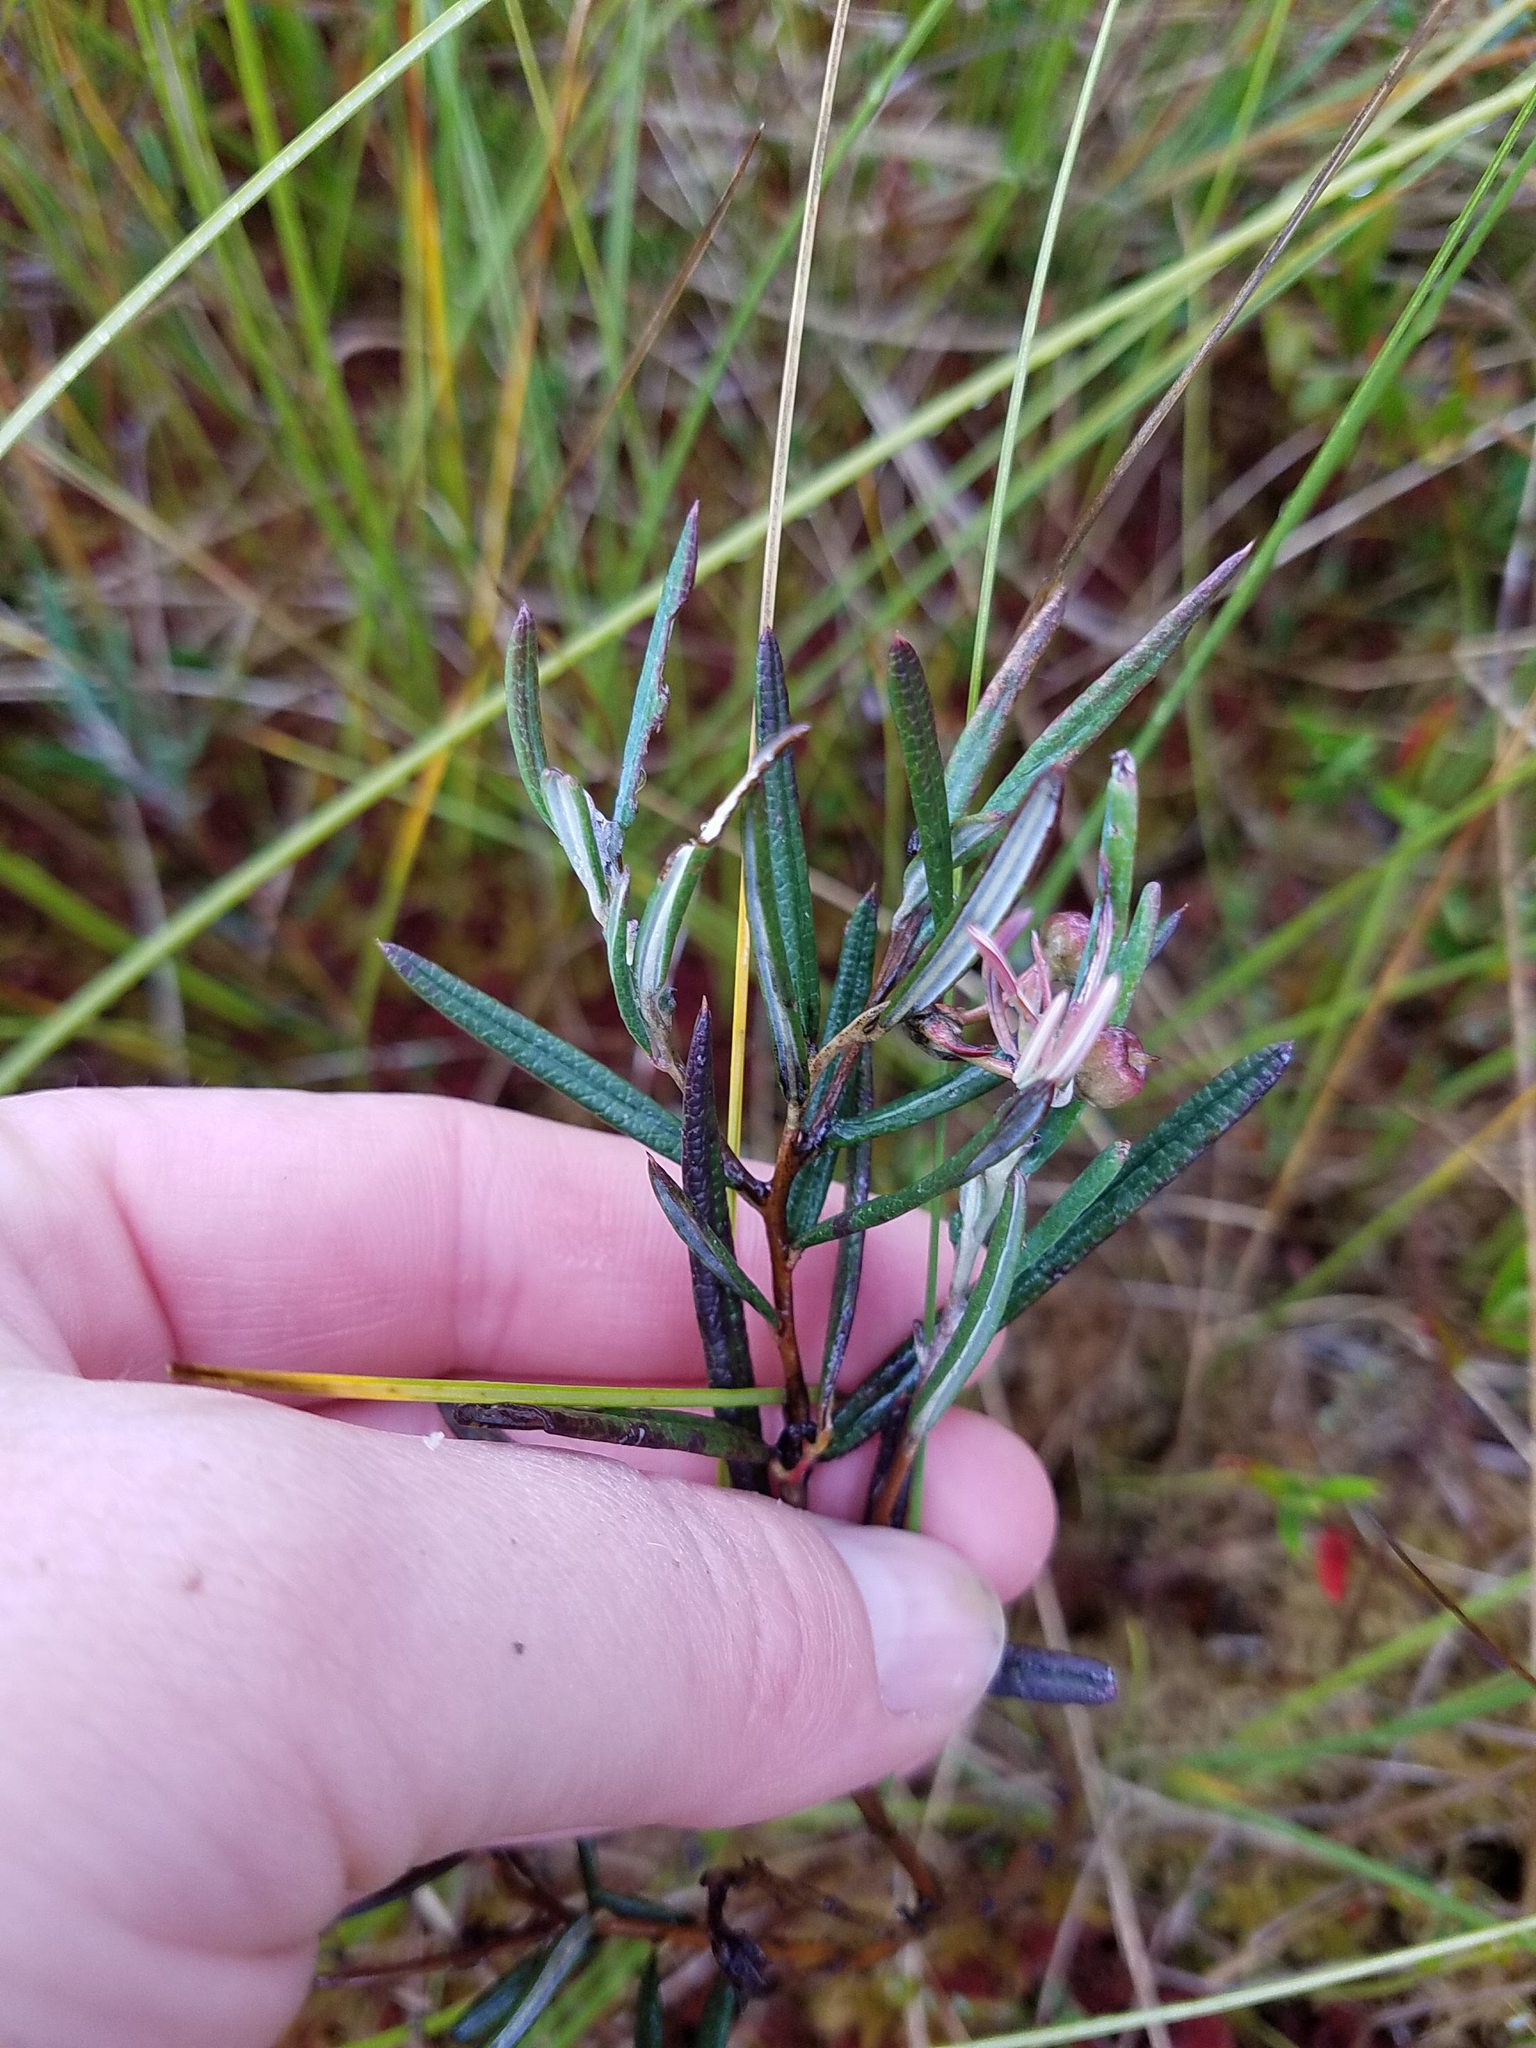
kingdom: Plantae
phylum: Tracheophyta
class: Magnoliopsida
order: Ericales
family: Ericaceae
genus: Andromeda
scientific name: Andromeda polifolia
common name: Bog-rosemary
